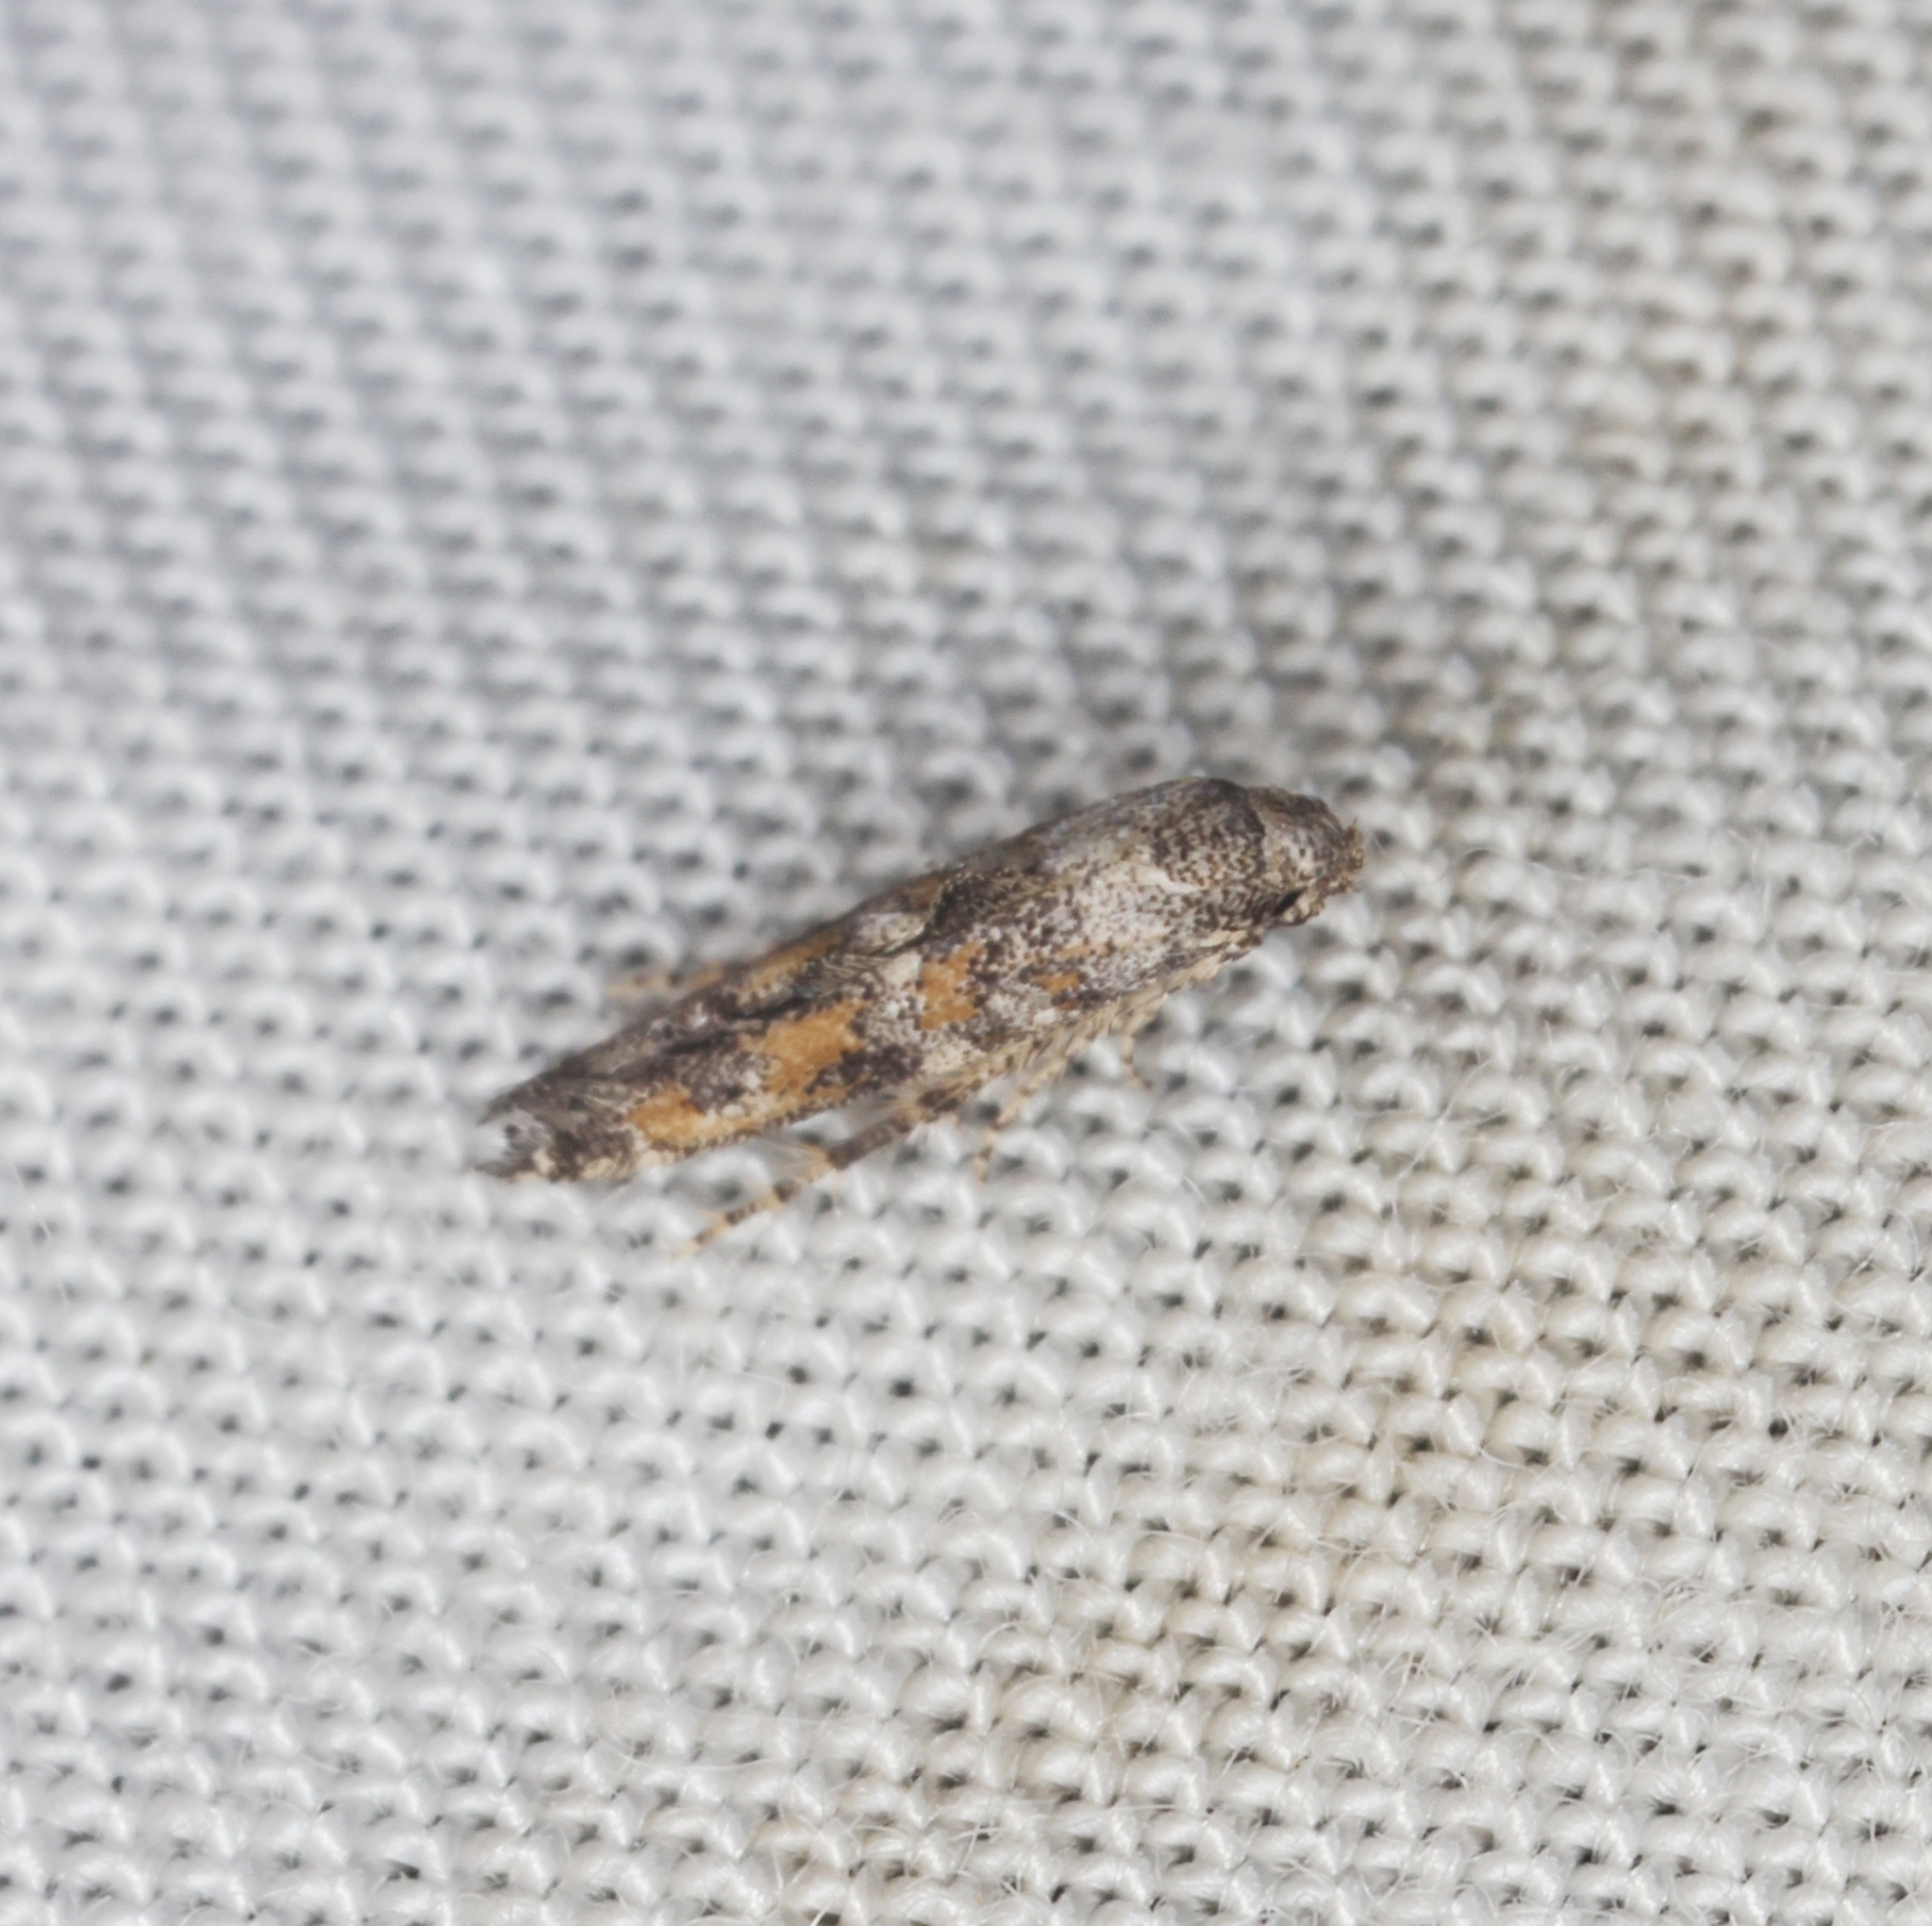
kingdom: Animalia
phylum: Arthropoda
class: Insecta
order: Lepidoptera
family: Epermeniidae
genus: Epermenia
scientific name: Epermenia
